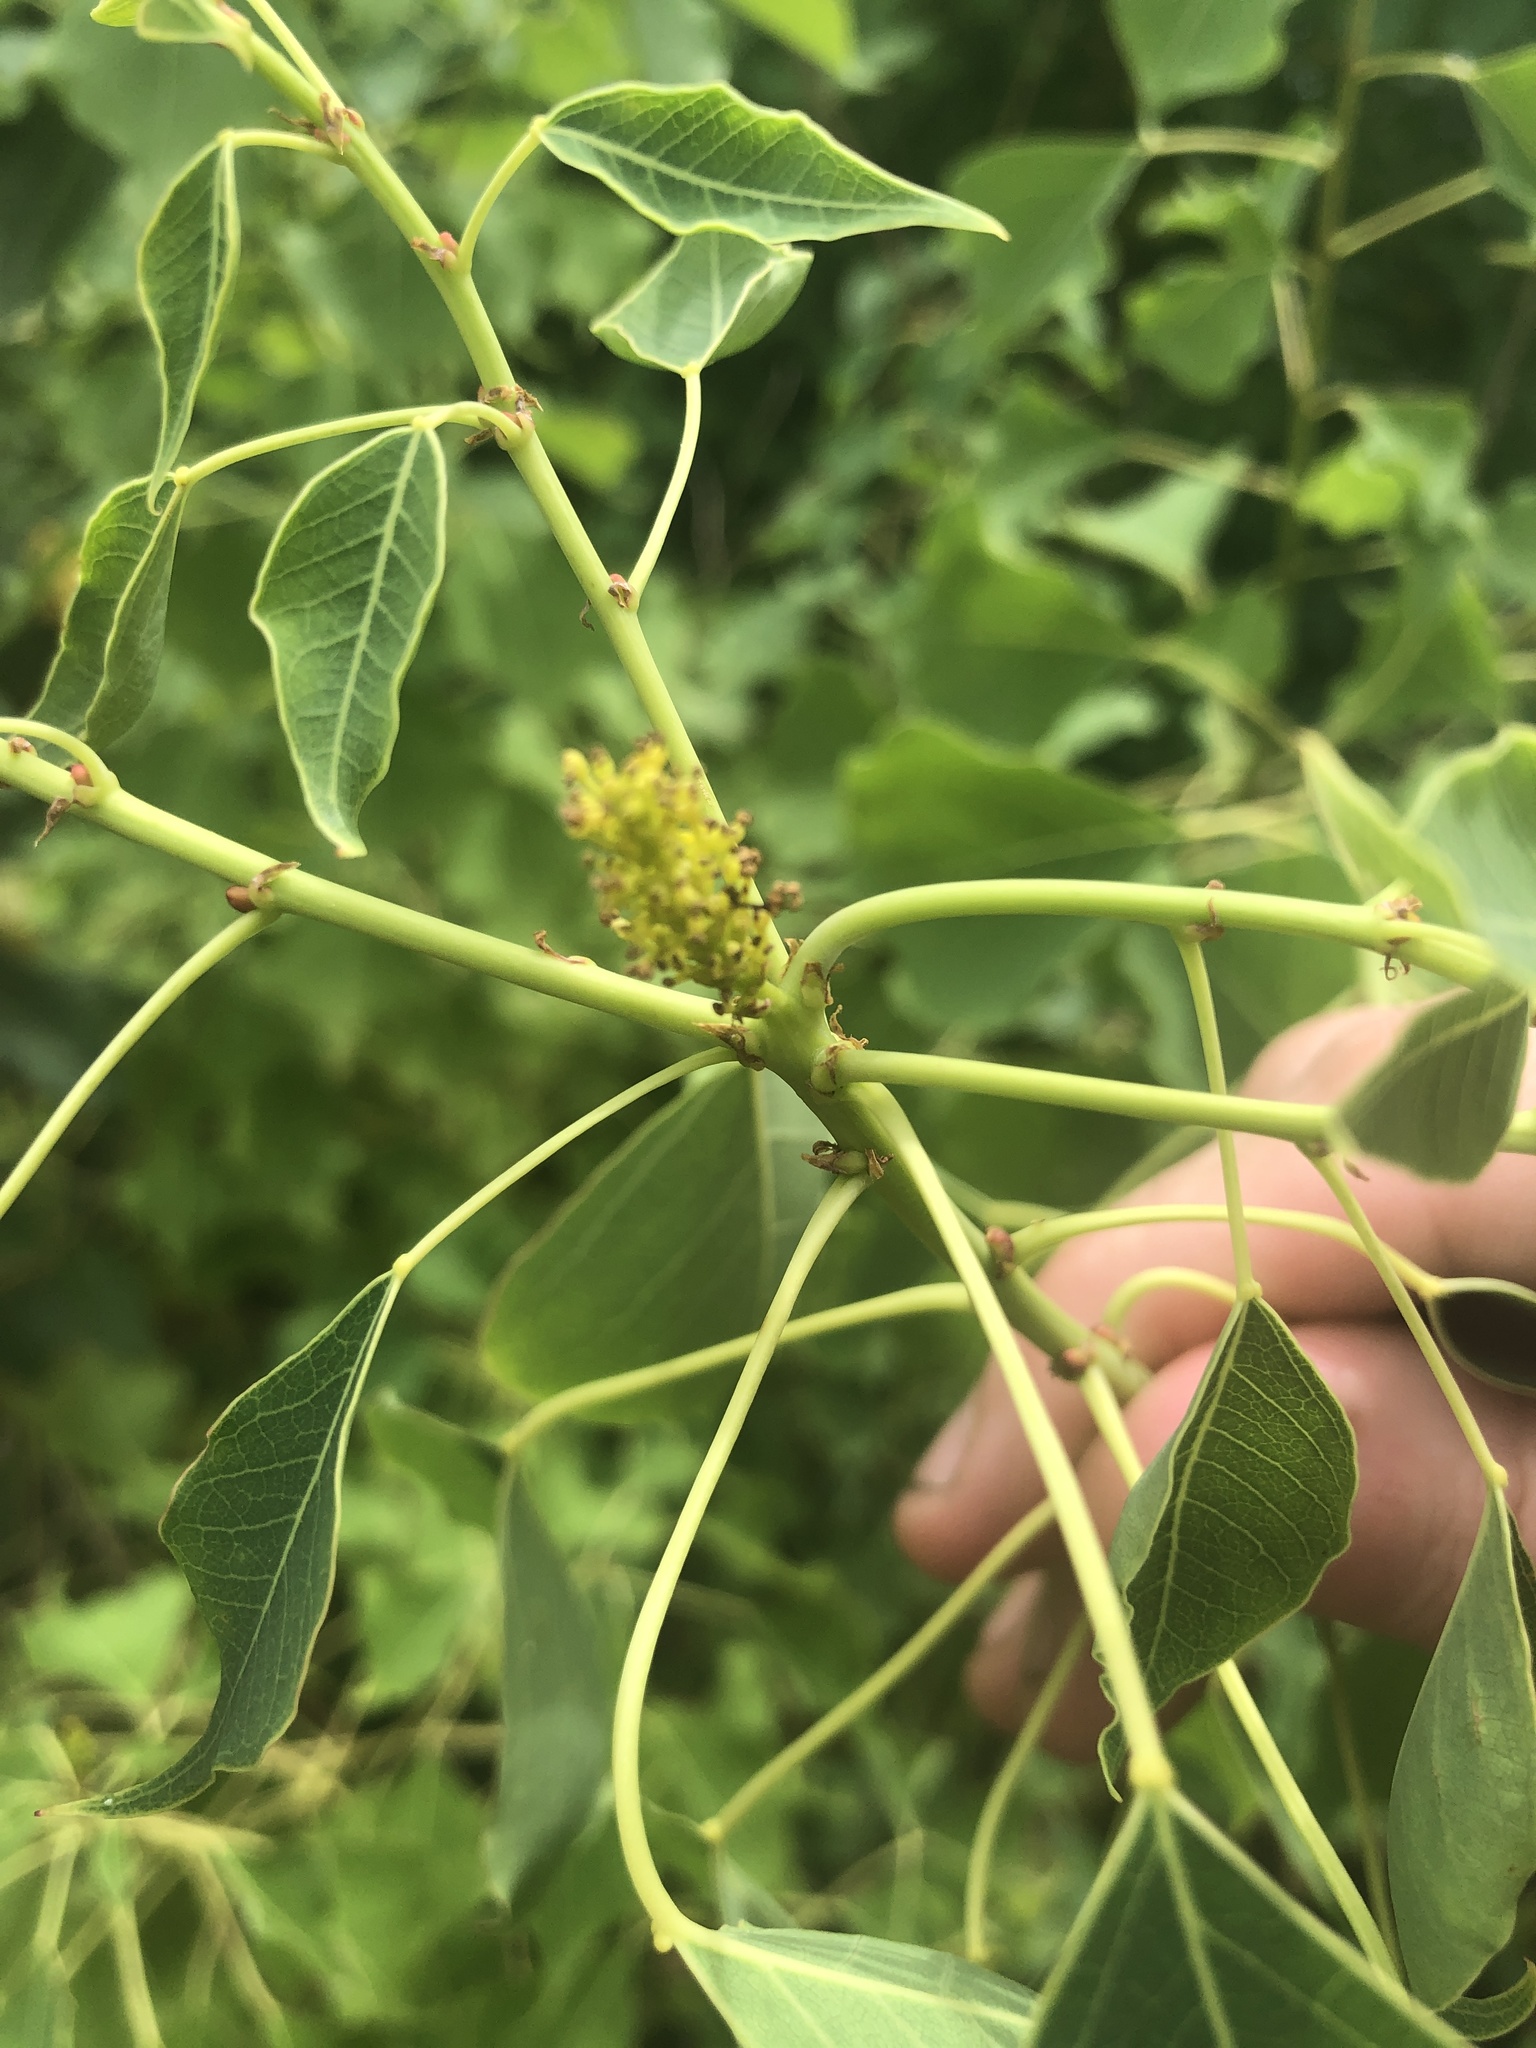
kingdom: Plantae
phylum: Tracheophyta
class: Magnoliopsida
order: Malpighiales
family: Euphorbiaceae
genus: Triadica
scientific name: Triadica sebifera
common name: Chinese tallow
